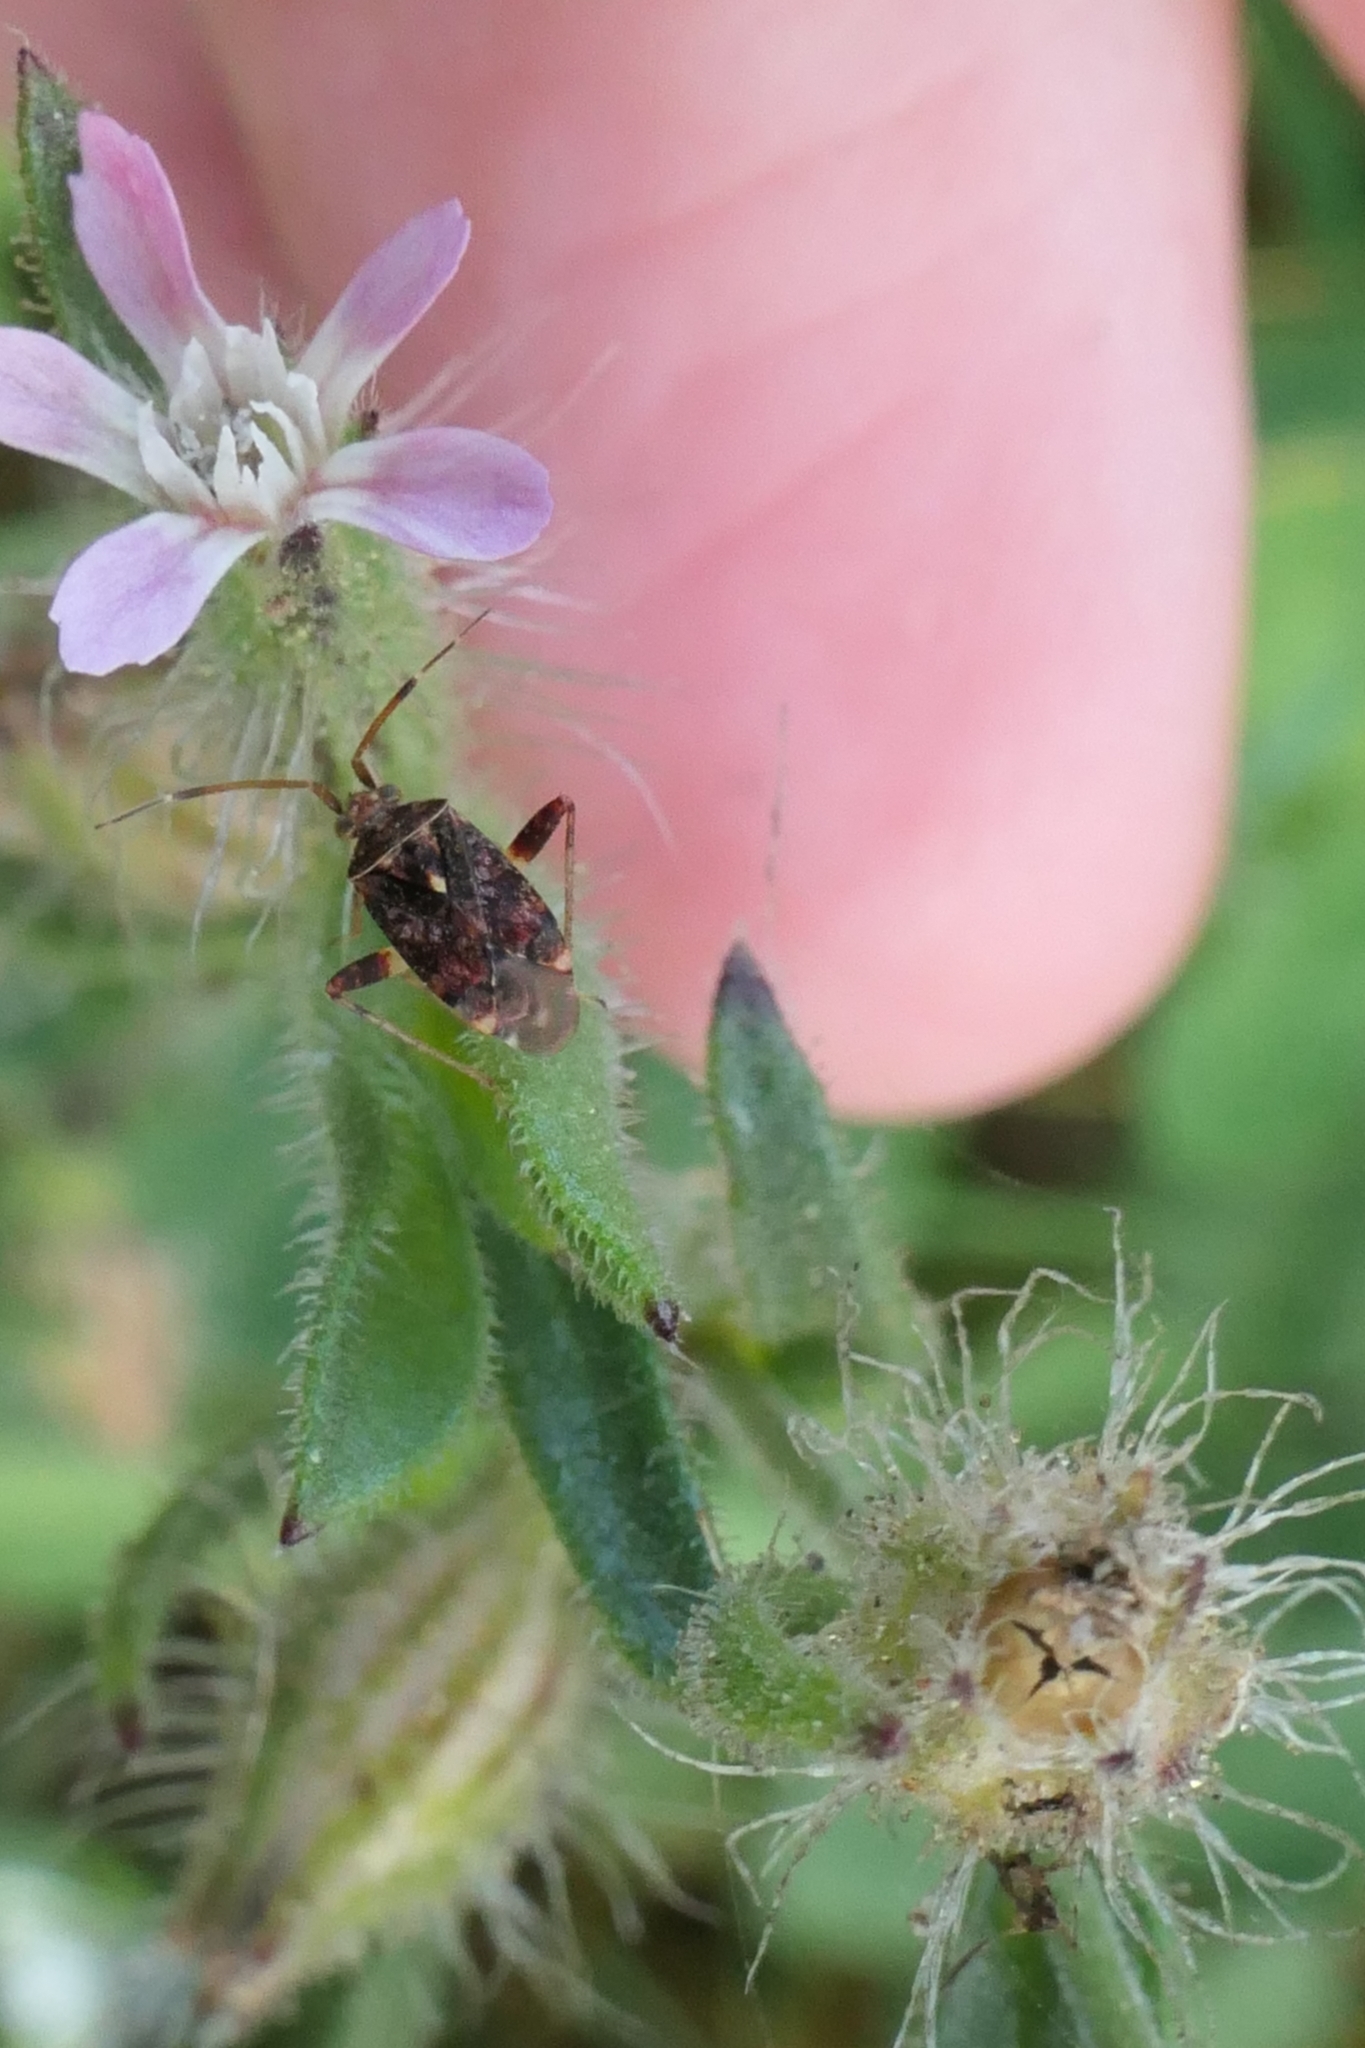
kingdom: Animalia
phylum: Arthropoda
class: Insecta
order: Hemiptera
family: Miridae
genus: Sidnia
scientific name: Sidnia kinbergi
